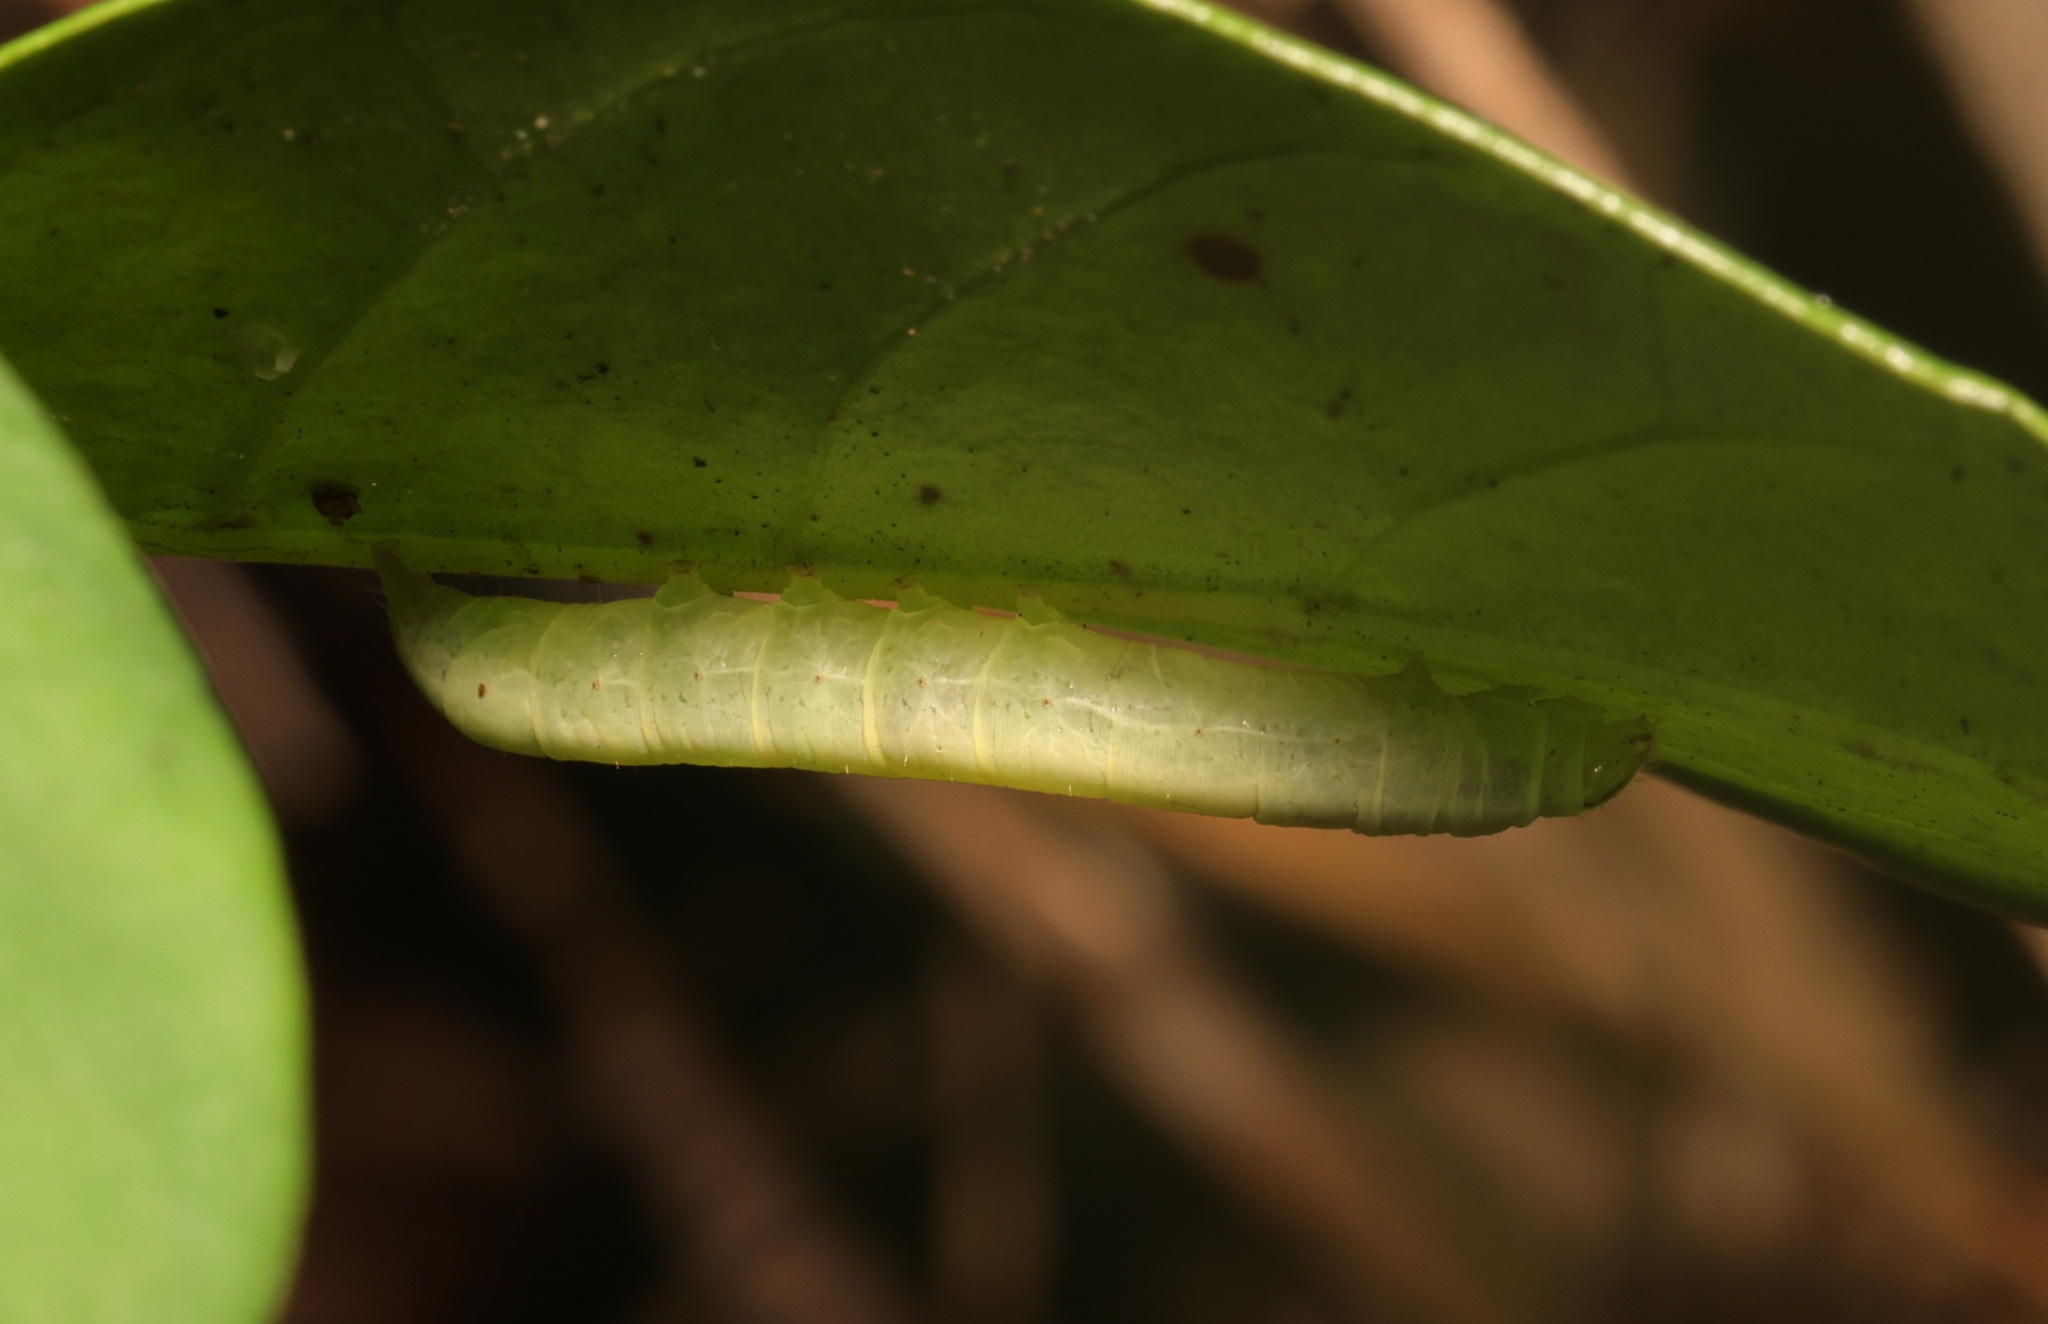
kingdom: Animalia
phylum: Arthropoda
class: Insecta
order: Lepidoptera
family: Noctuidae
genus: Paradiopa
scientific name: Paradiopa postfusca
